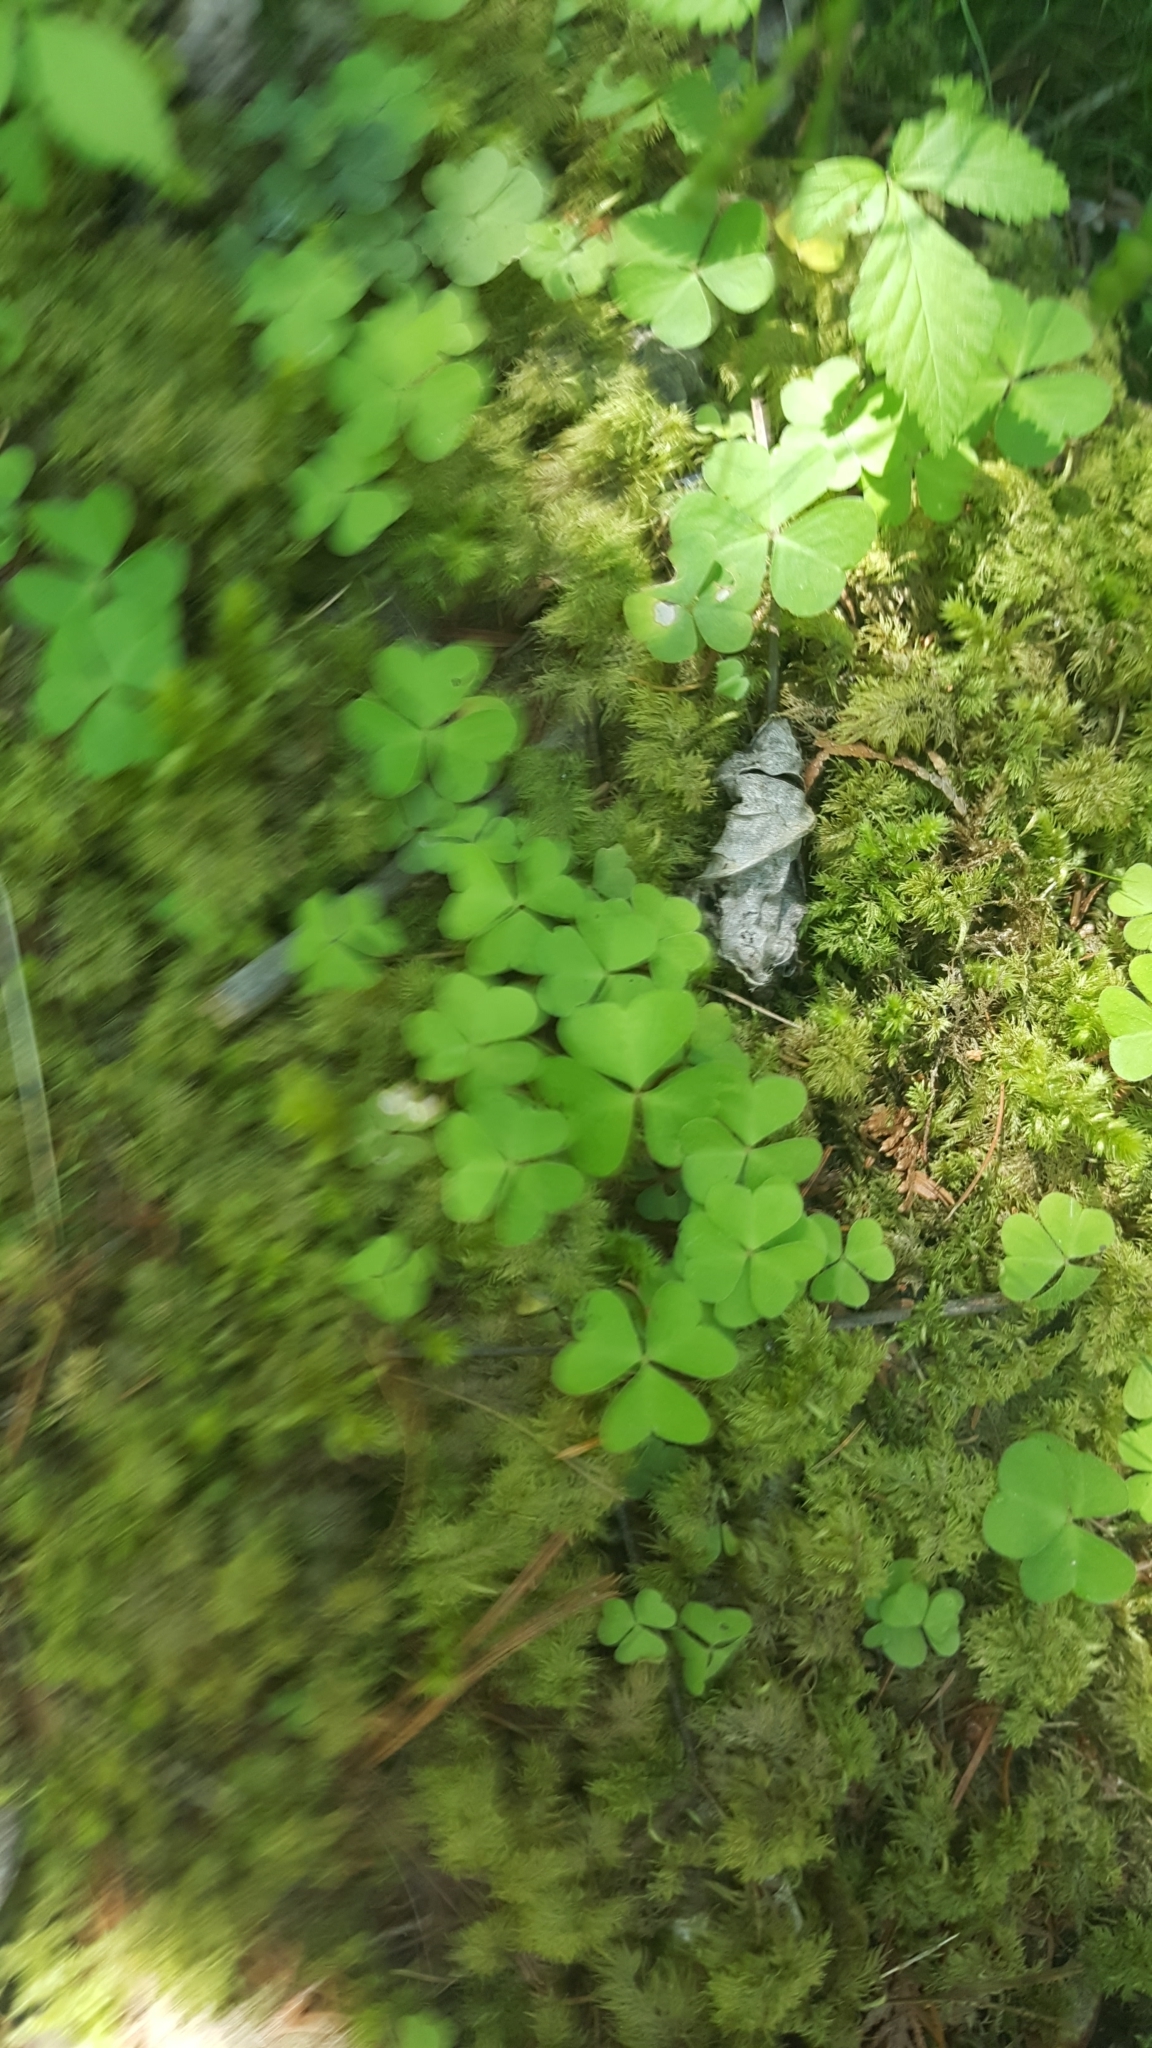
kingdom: Plantae
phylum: Tracheophyta
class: Magnoliopsida
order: Oxalidales
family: Oxalidaceae
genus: Oxalis
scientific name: Oxalis montana
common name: American wood-sorrel
